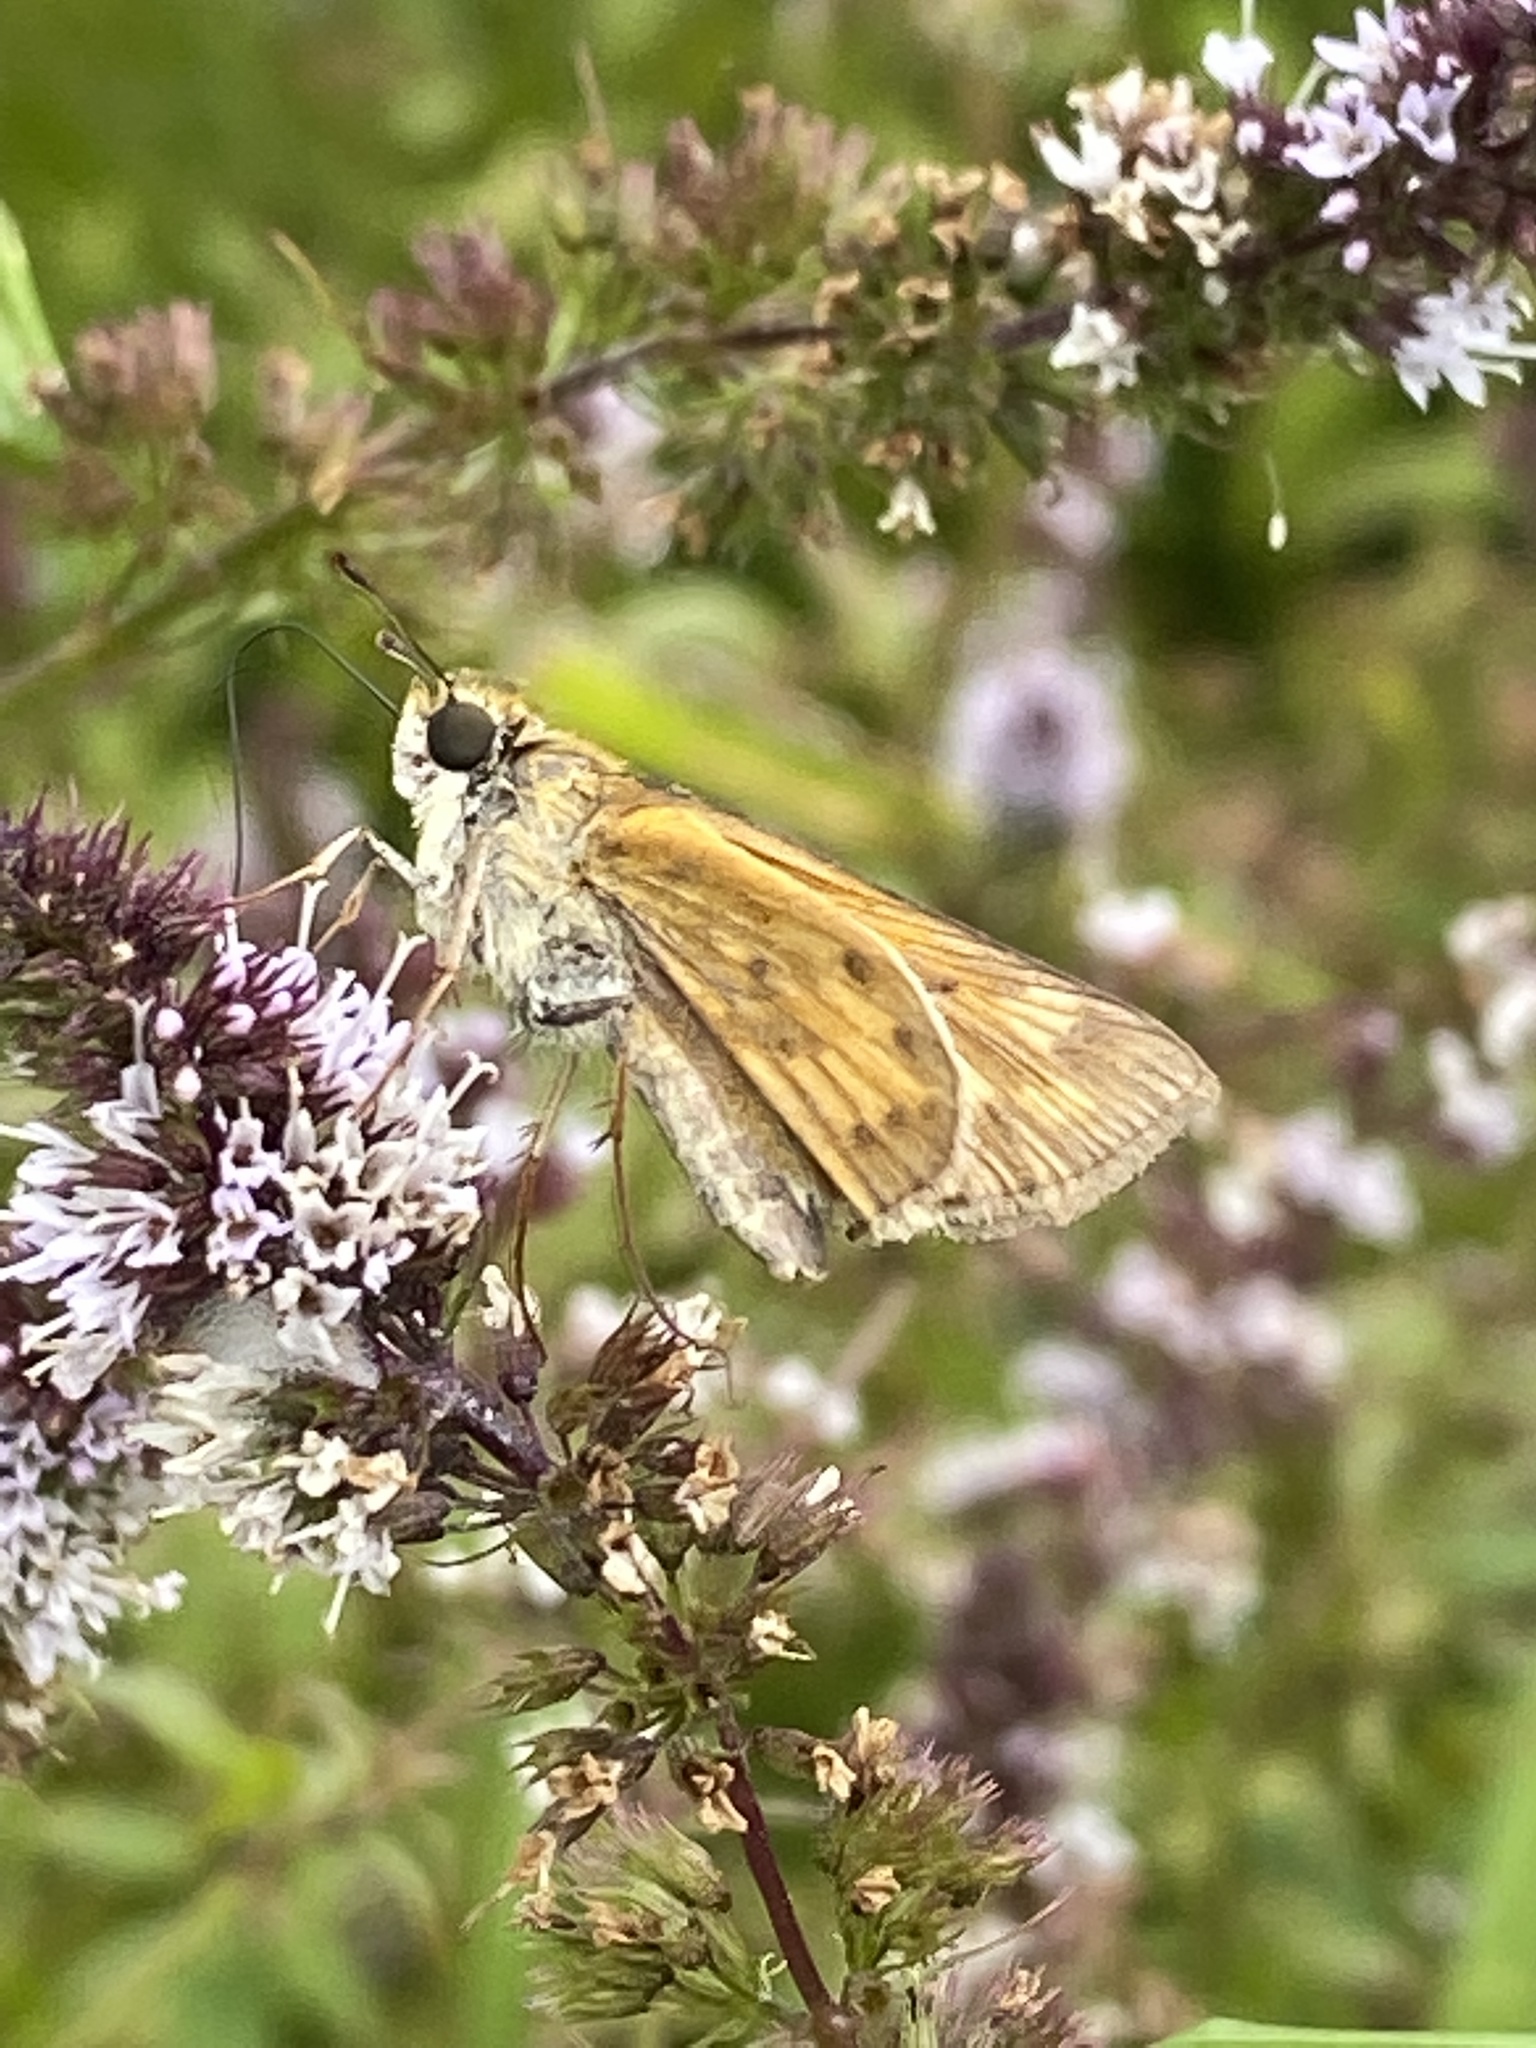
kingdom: Animalia
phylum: Arthropoda
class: Insecta
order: Lepidoptera
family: Hesperiidae
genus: Hylephila
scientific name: Hylephila phyleus
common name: Fiery skipper
